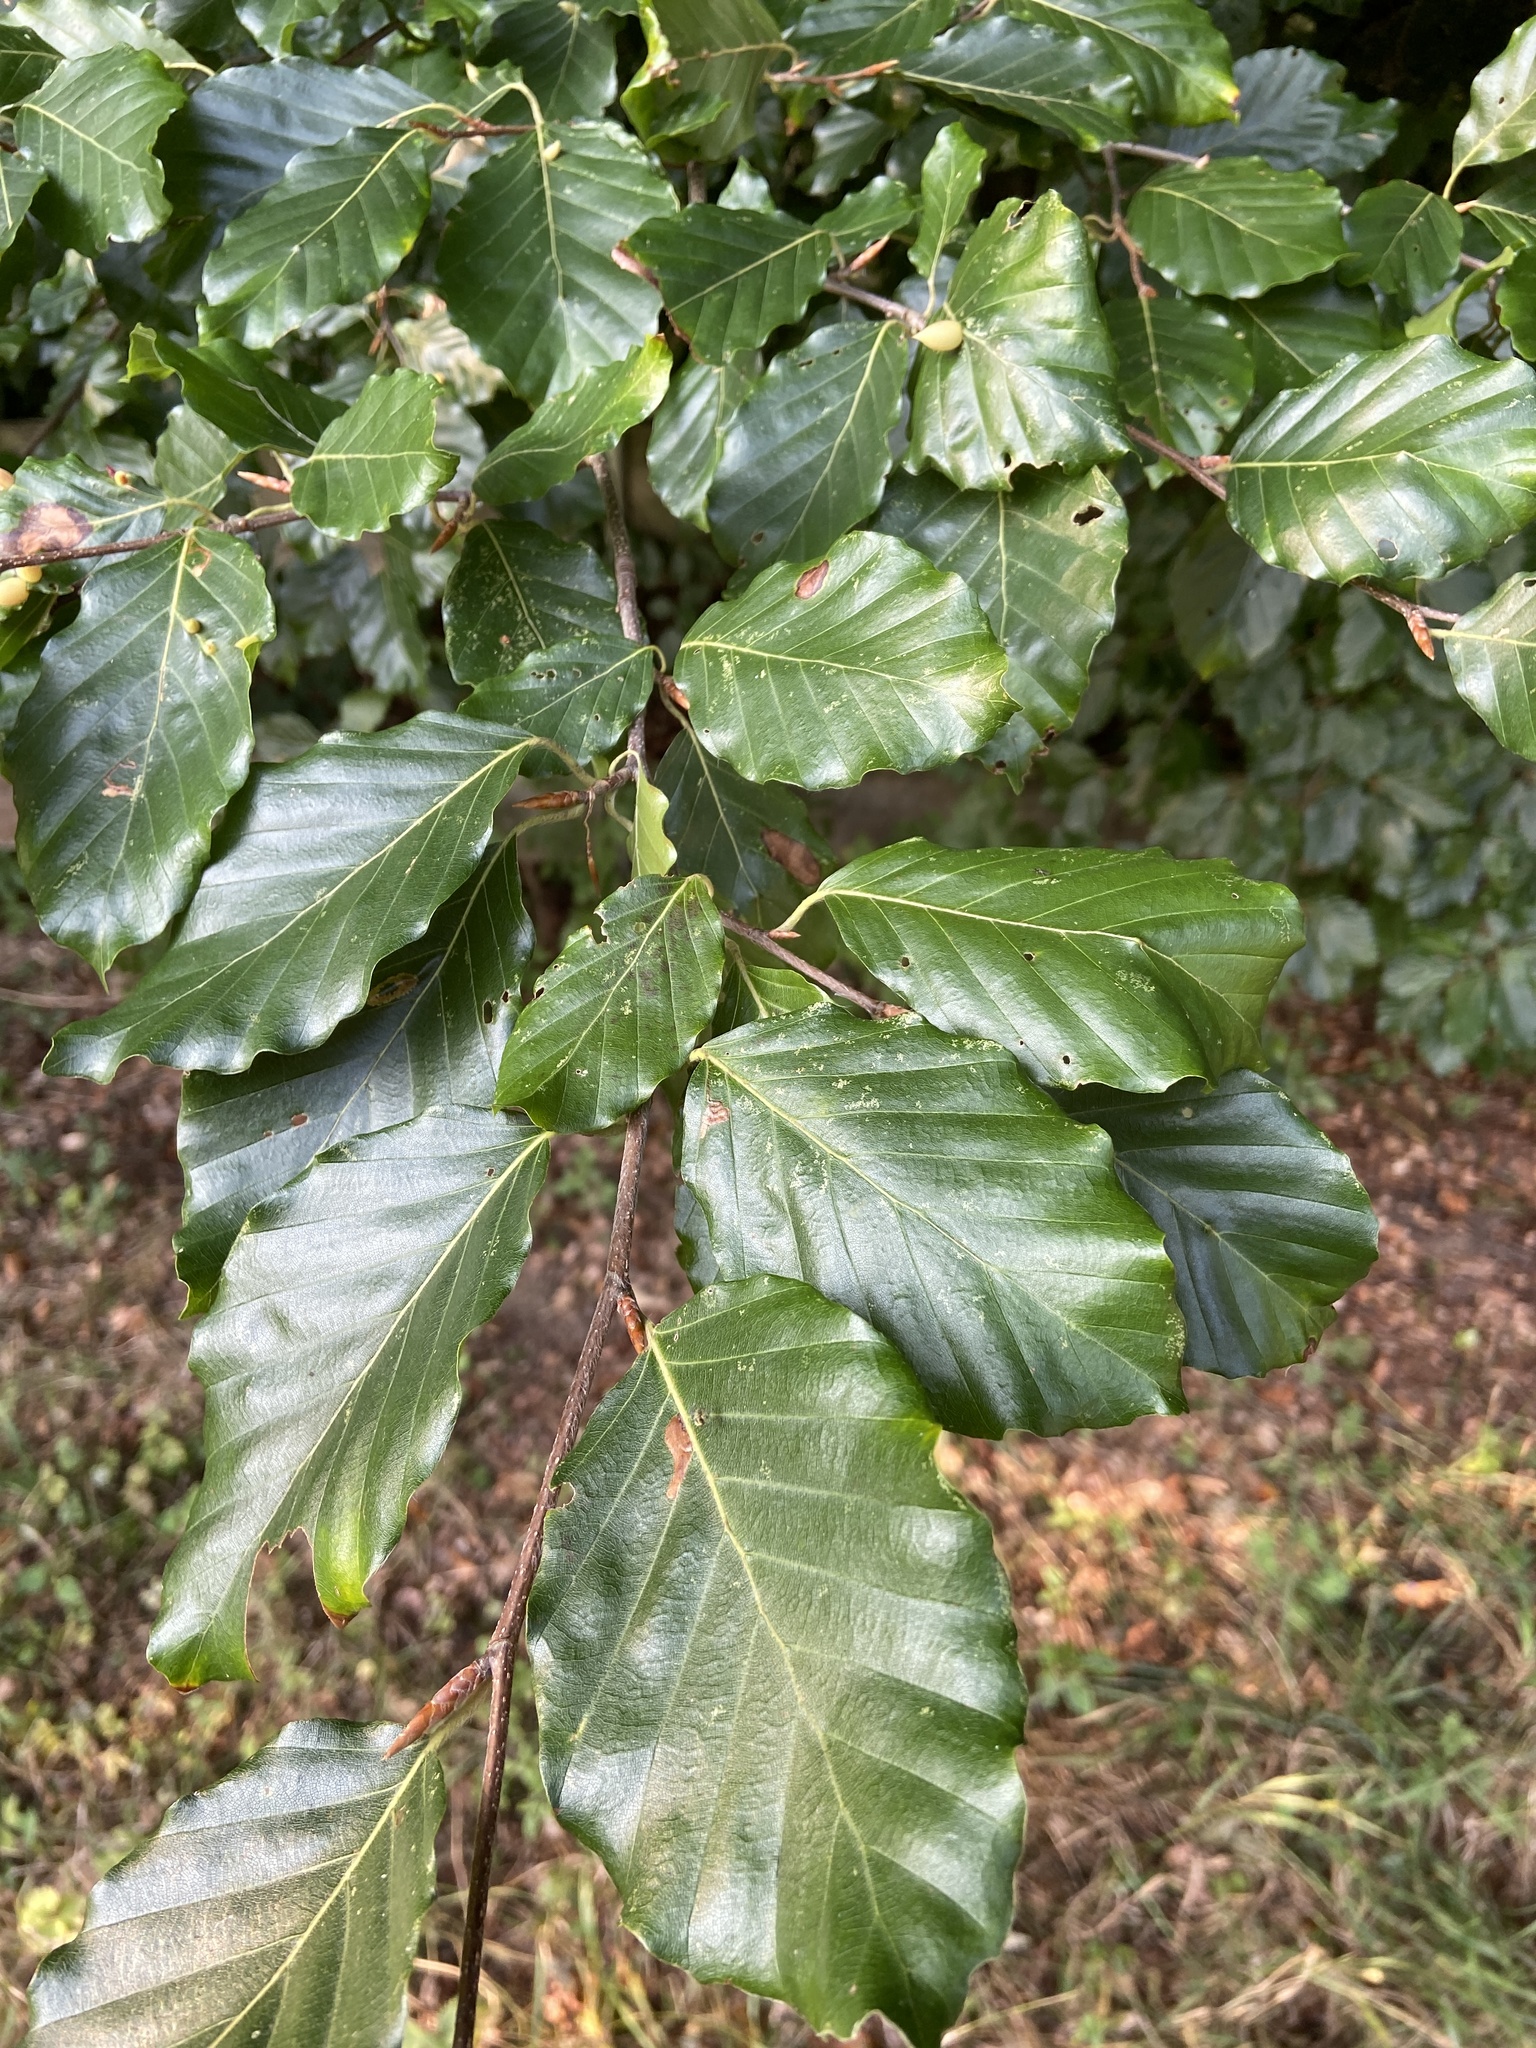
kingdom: Plantae
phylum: Tracheophyta
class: Magnoliopsida
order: Fagales
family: Fagaceae
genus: Fagus
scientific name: Fagus sylvatica
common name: Beech
